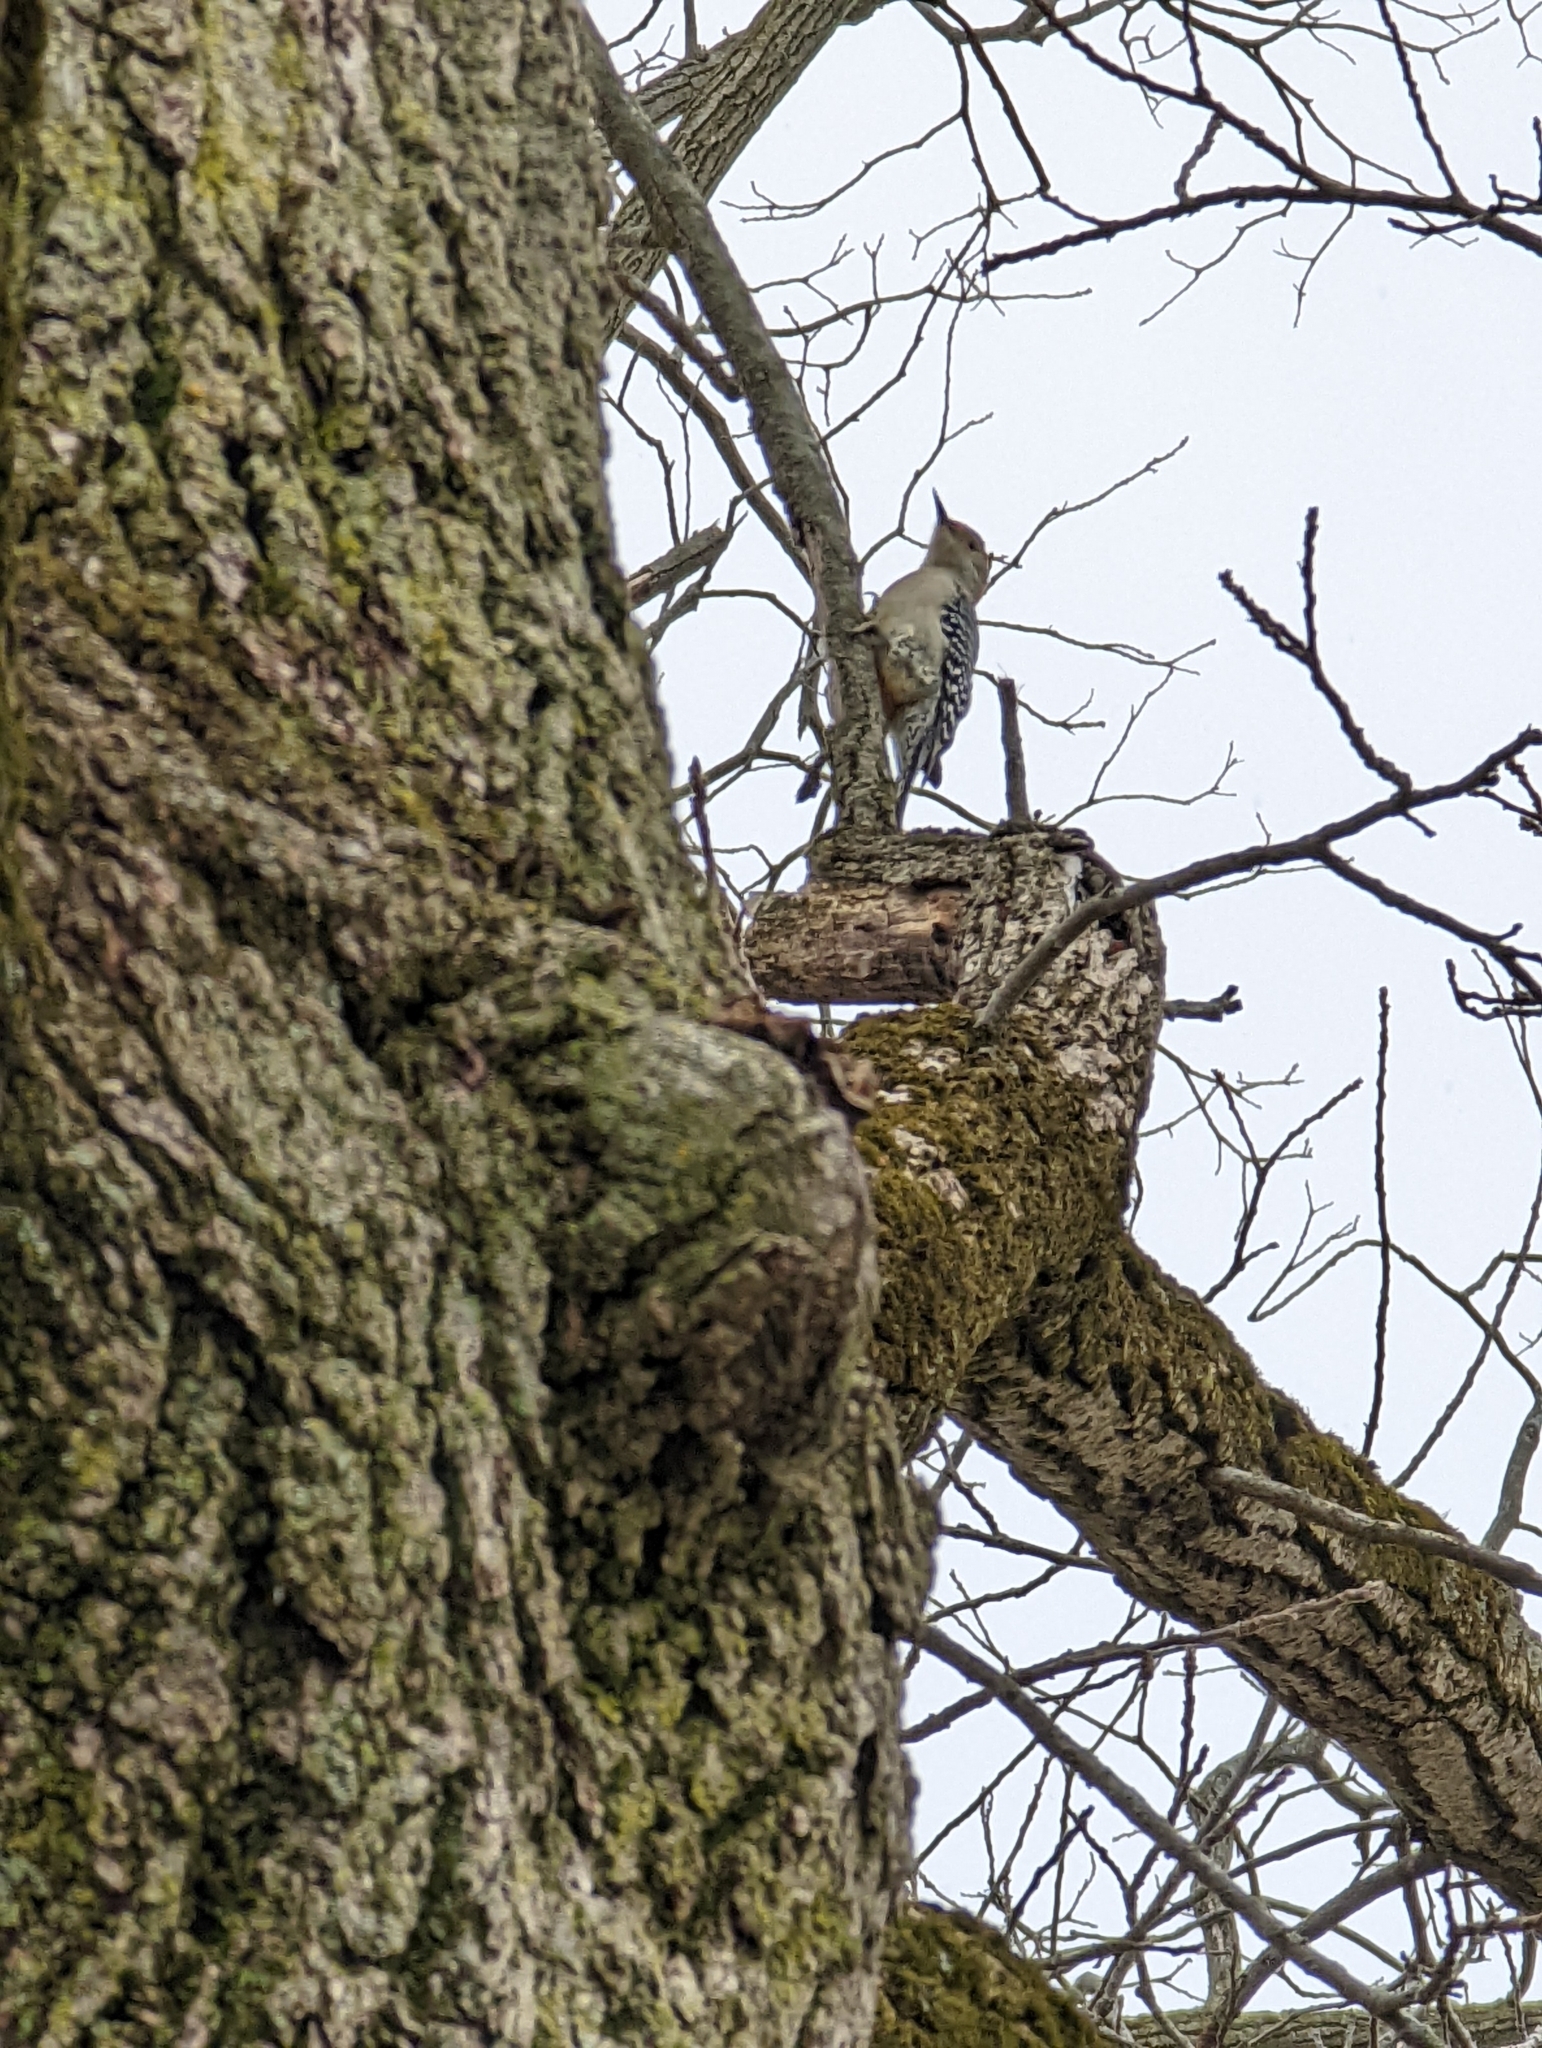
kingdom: Animalia
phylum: Chordata
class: Aves
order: Piciformes
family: Picidae
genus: Melanerpes
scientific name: Melanerpes carolinus
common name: Red-bellied woodpecker
